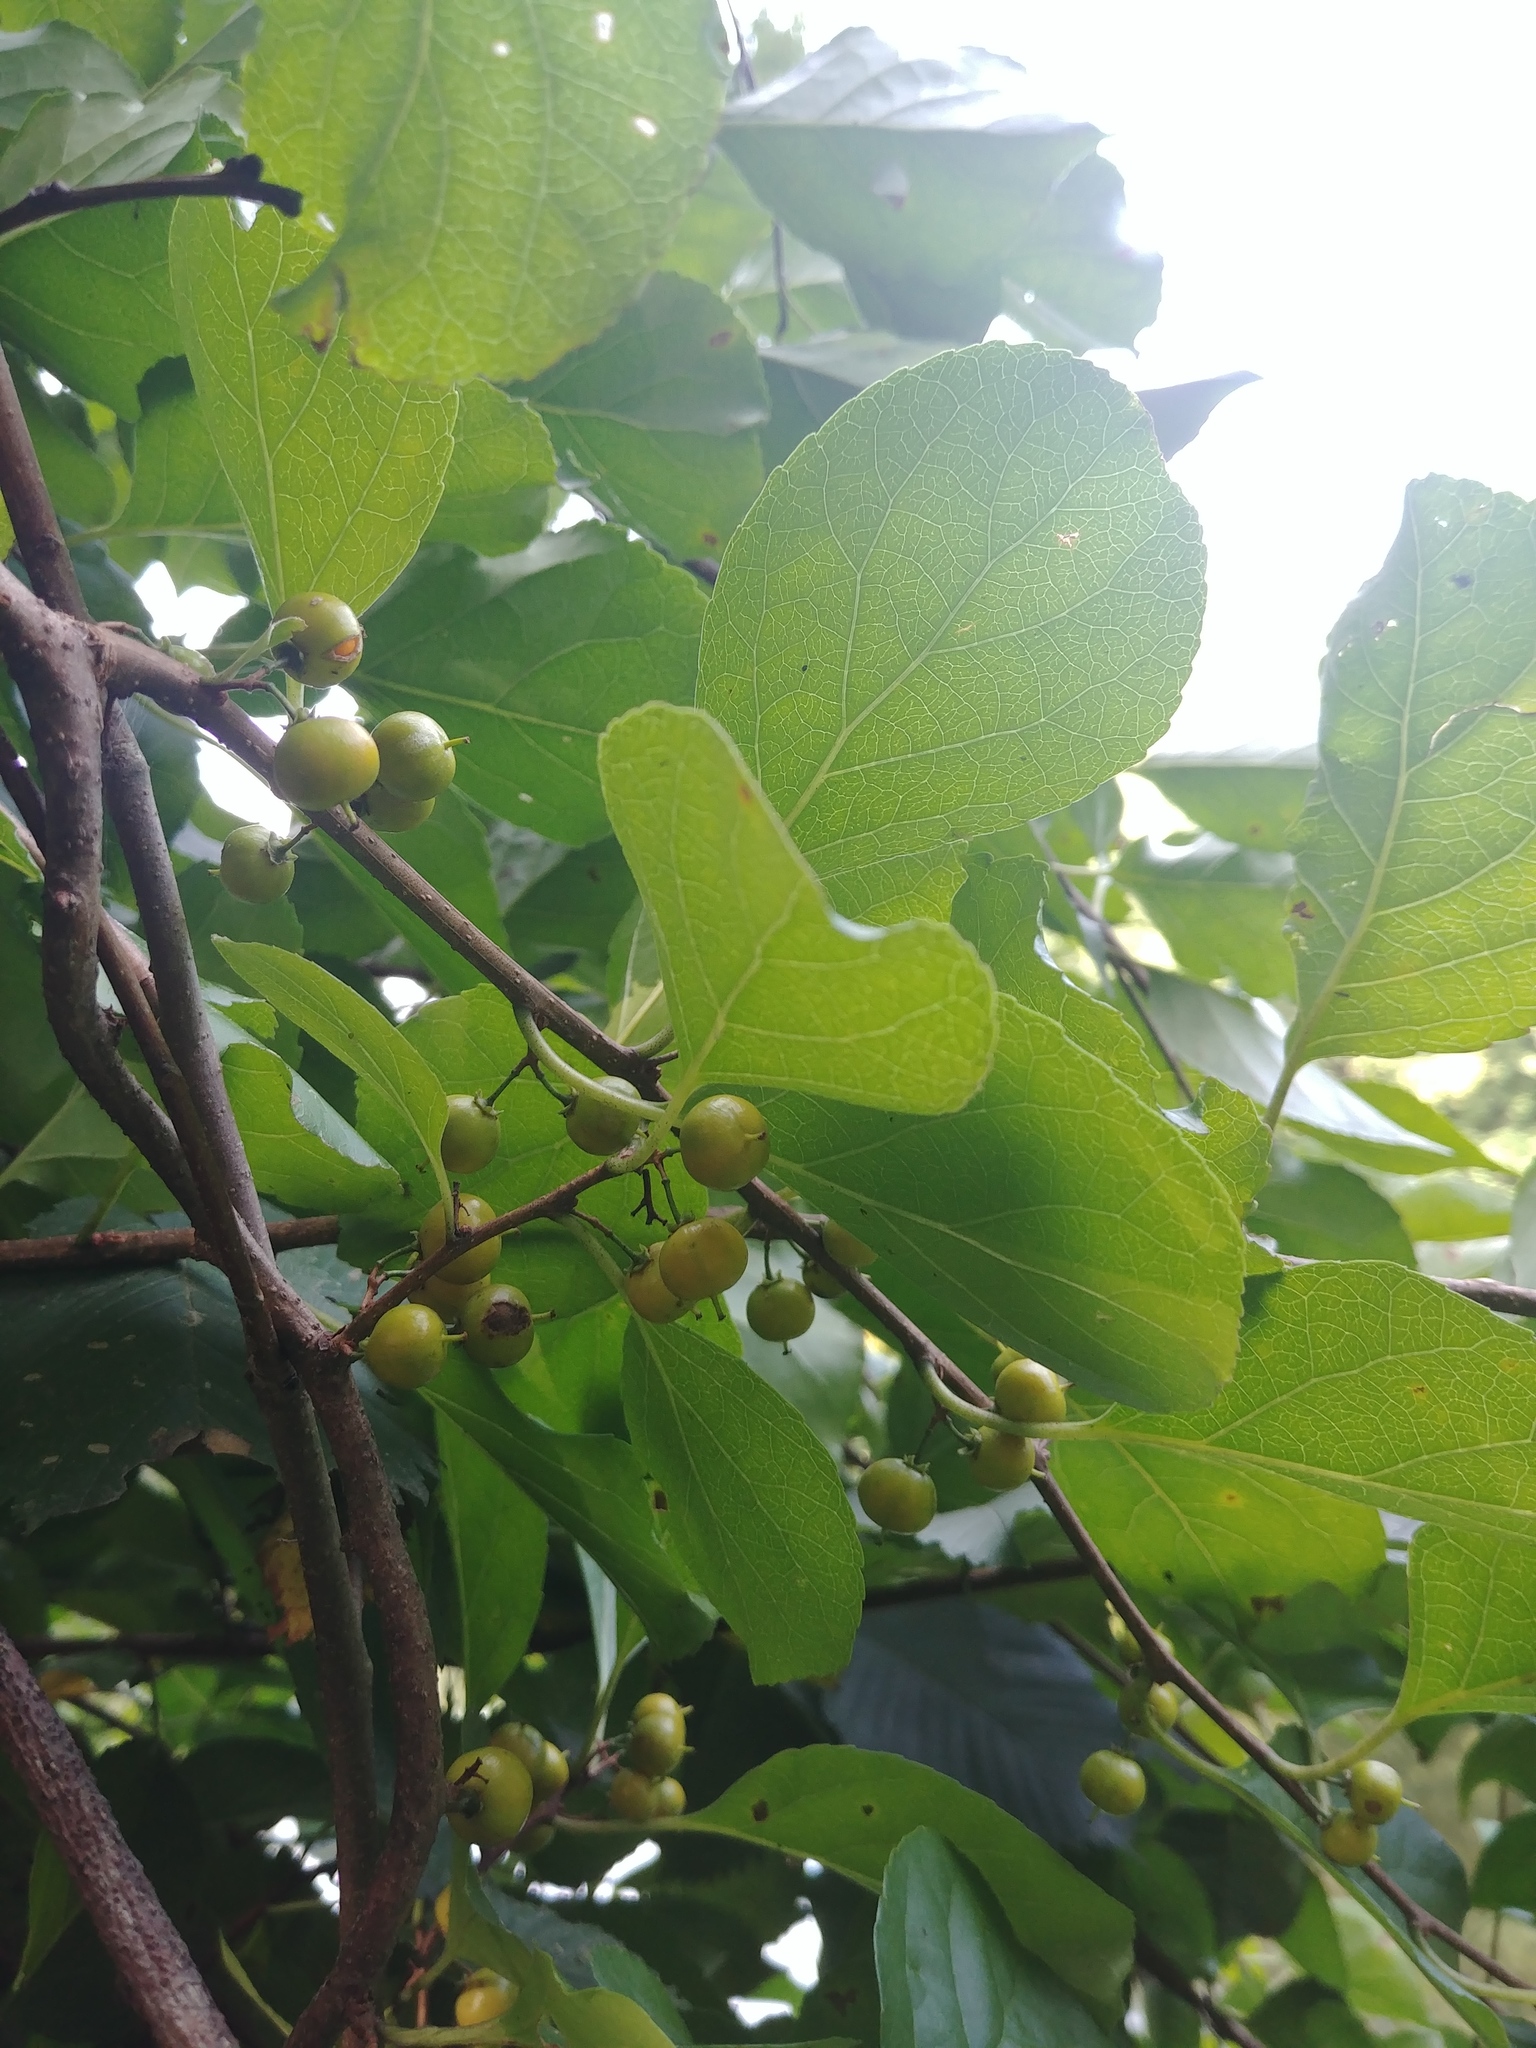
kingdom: Plantae
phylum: Tracheophyta
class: Magnoliopsida
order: Celastrales
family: Celastraceae
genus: Celastrus
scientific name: Celastrus orbiculatus
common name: Oriental bittersweet
